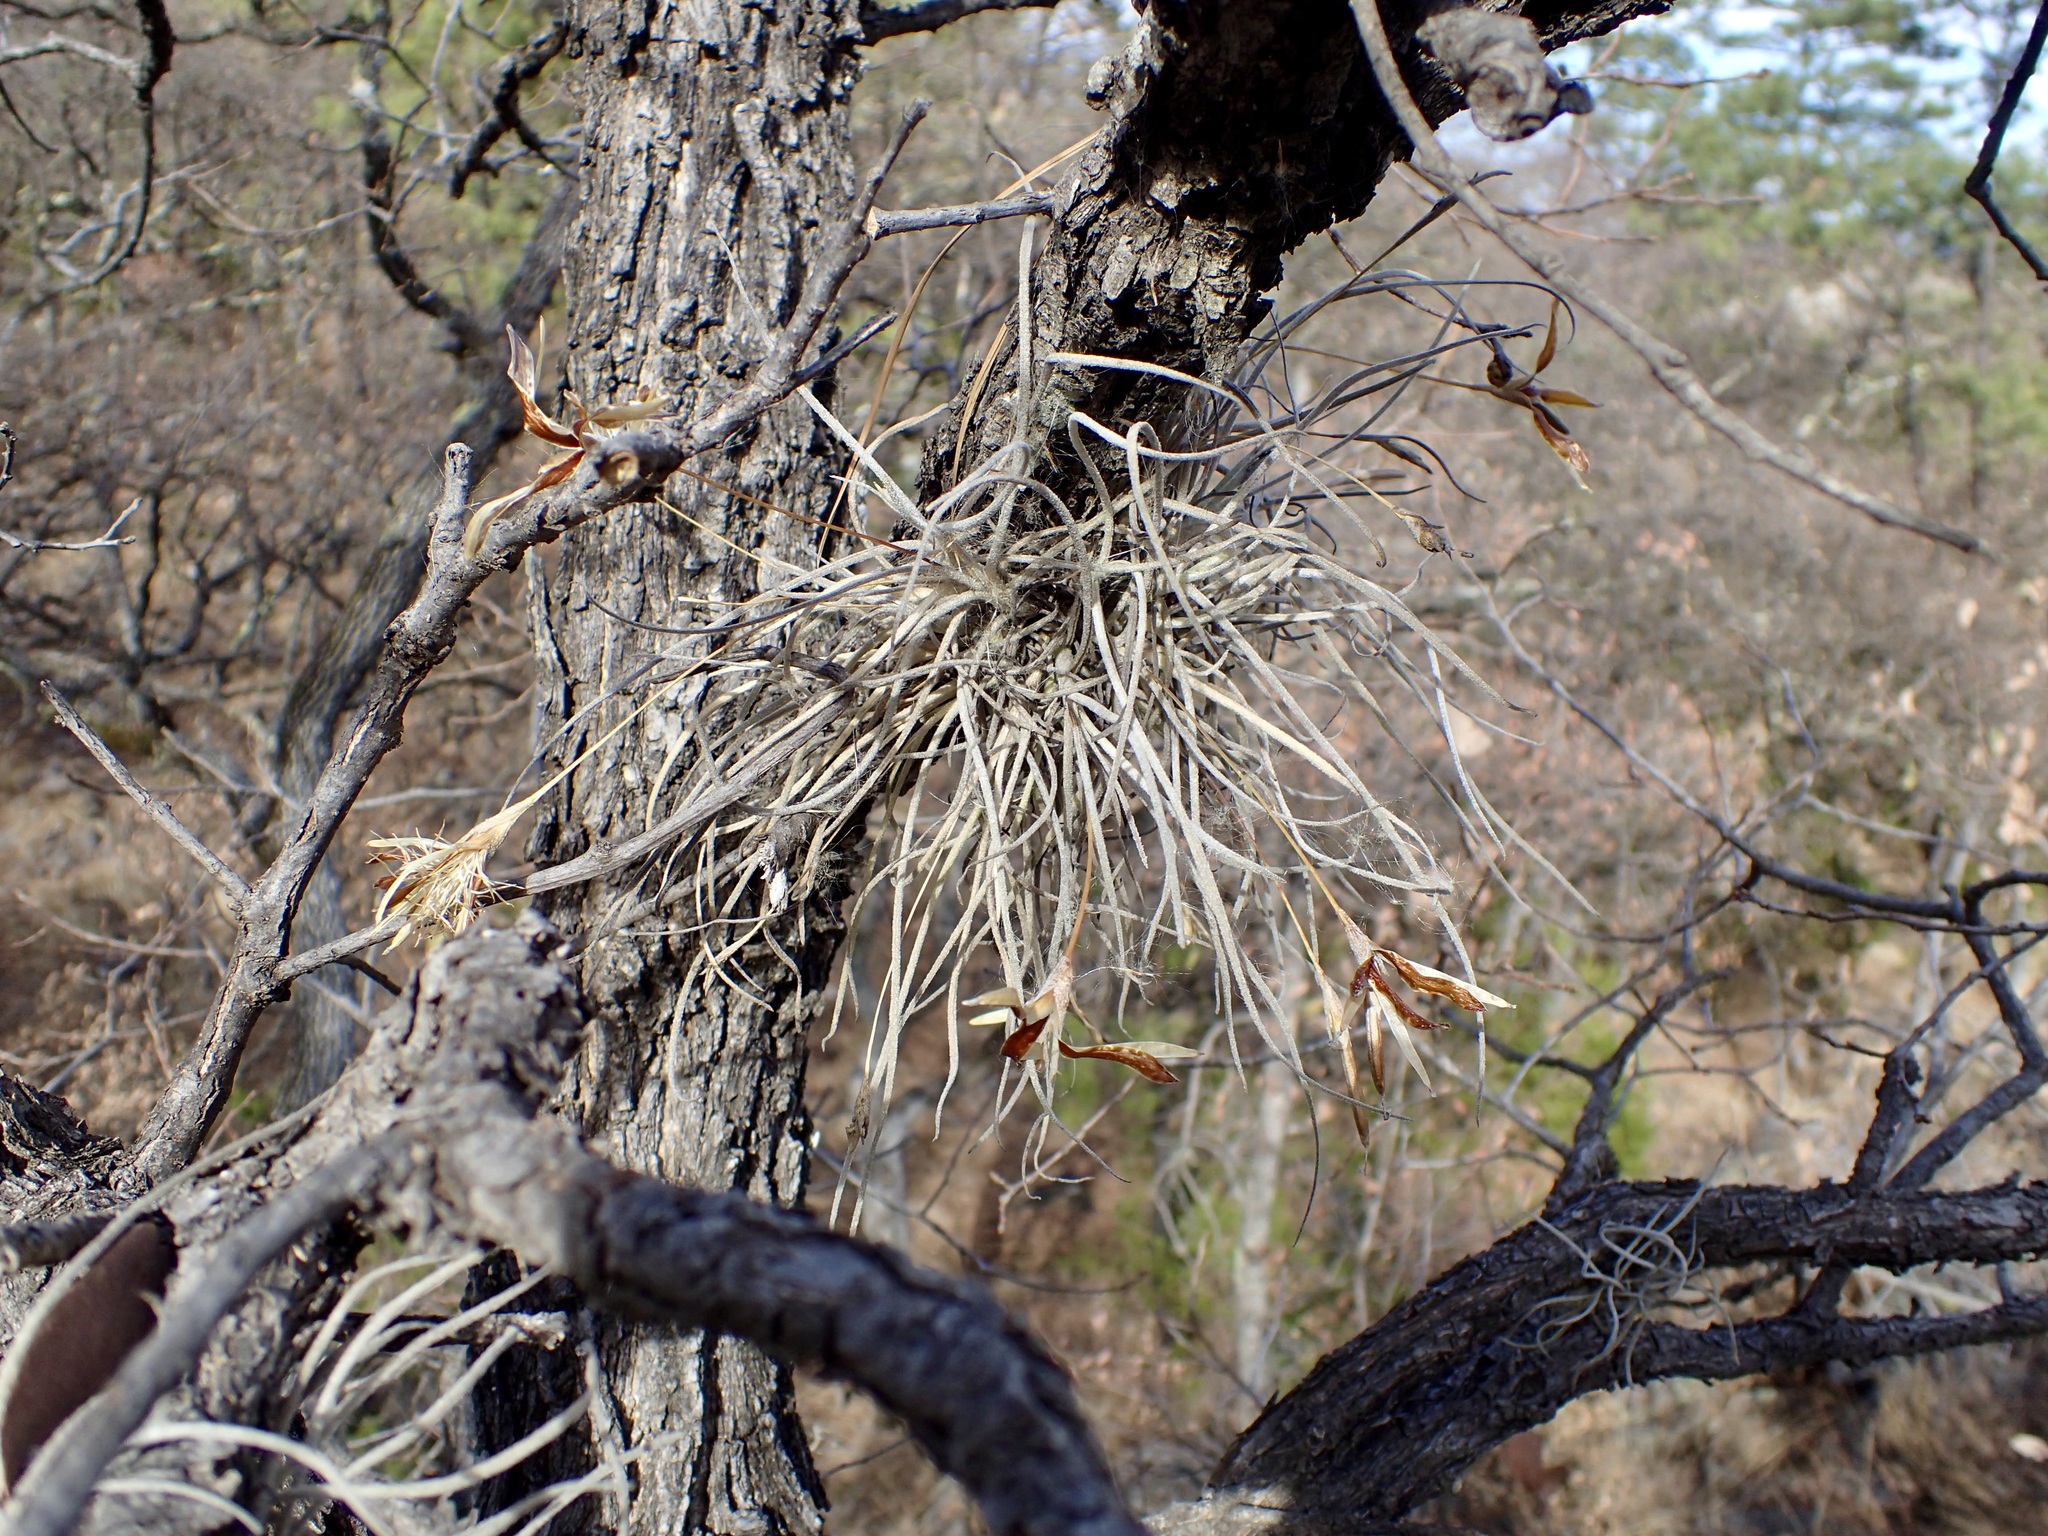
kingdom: Plantae
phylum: Tracheophyta
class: Liliopsida
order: Poales
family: Bromeliaceae
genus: Tillandsia
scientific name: Tillandsia recurvata
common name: Small ballmoss
